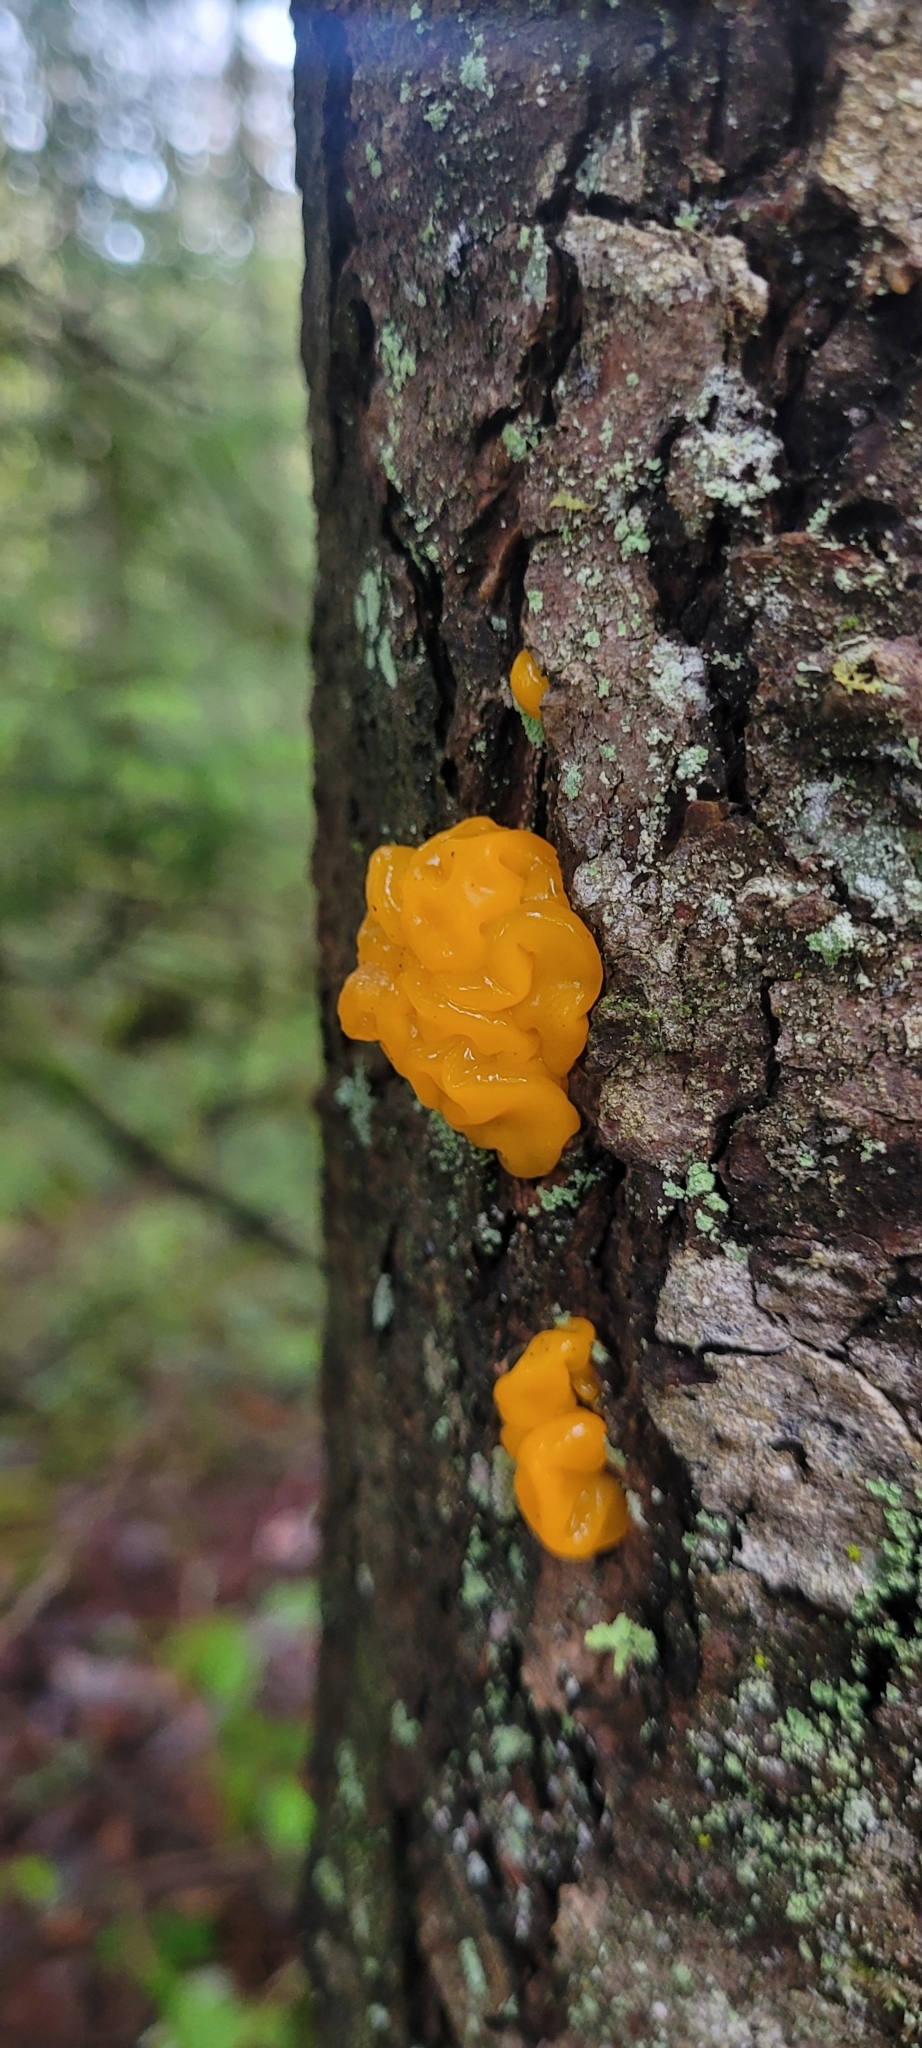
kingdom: Fungi
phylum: Basidiomycota
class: Dacrymycetes
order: Dacrymycetales
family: Dacrymycetaceae
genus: Dacrymyces
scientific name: Dacrymyces chrysospermus
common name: Orange jelly spot
